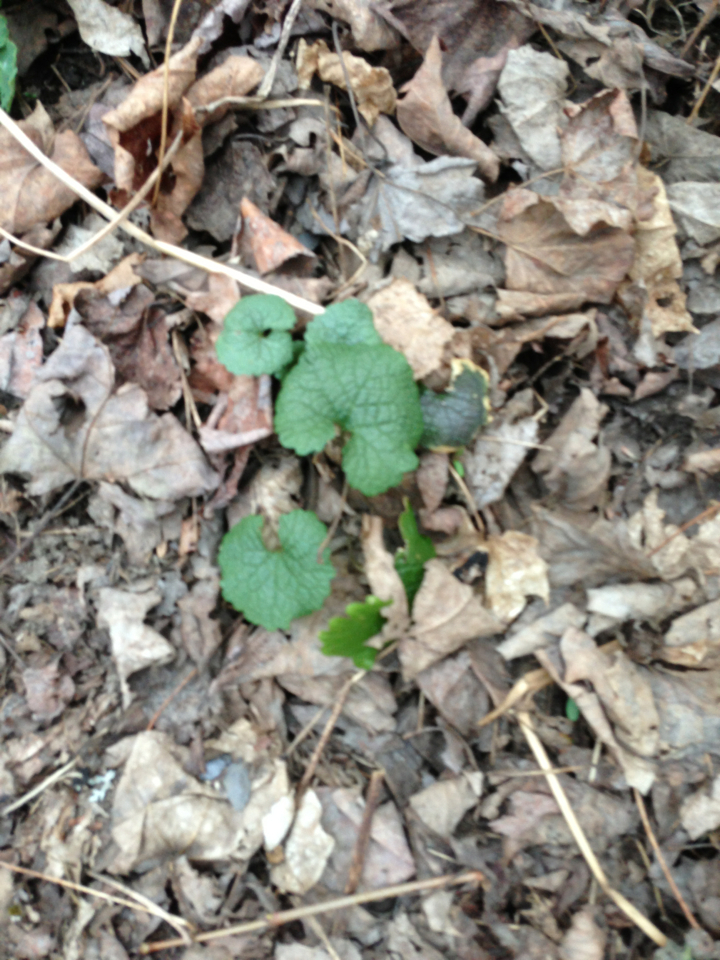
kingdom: Plantae
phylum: Tracheophyta
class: Magnoliopsida
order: Brassicales
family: Brassicaceae
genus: Alliaria
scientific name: Alliaria petiolata
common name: Garlic mustard
